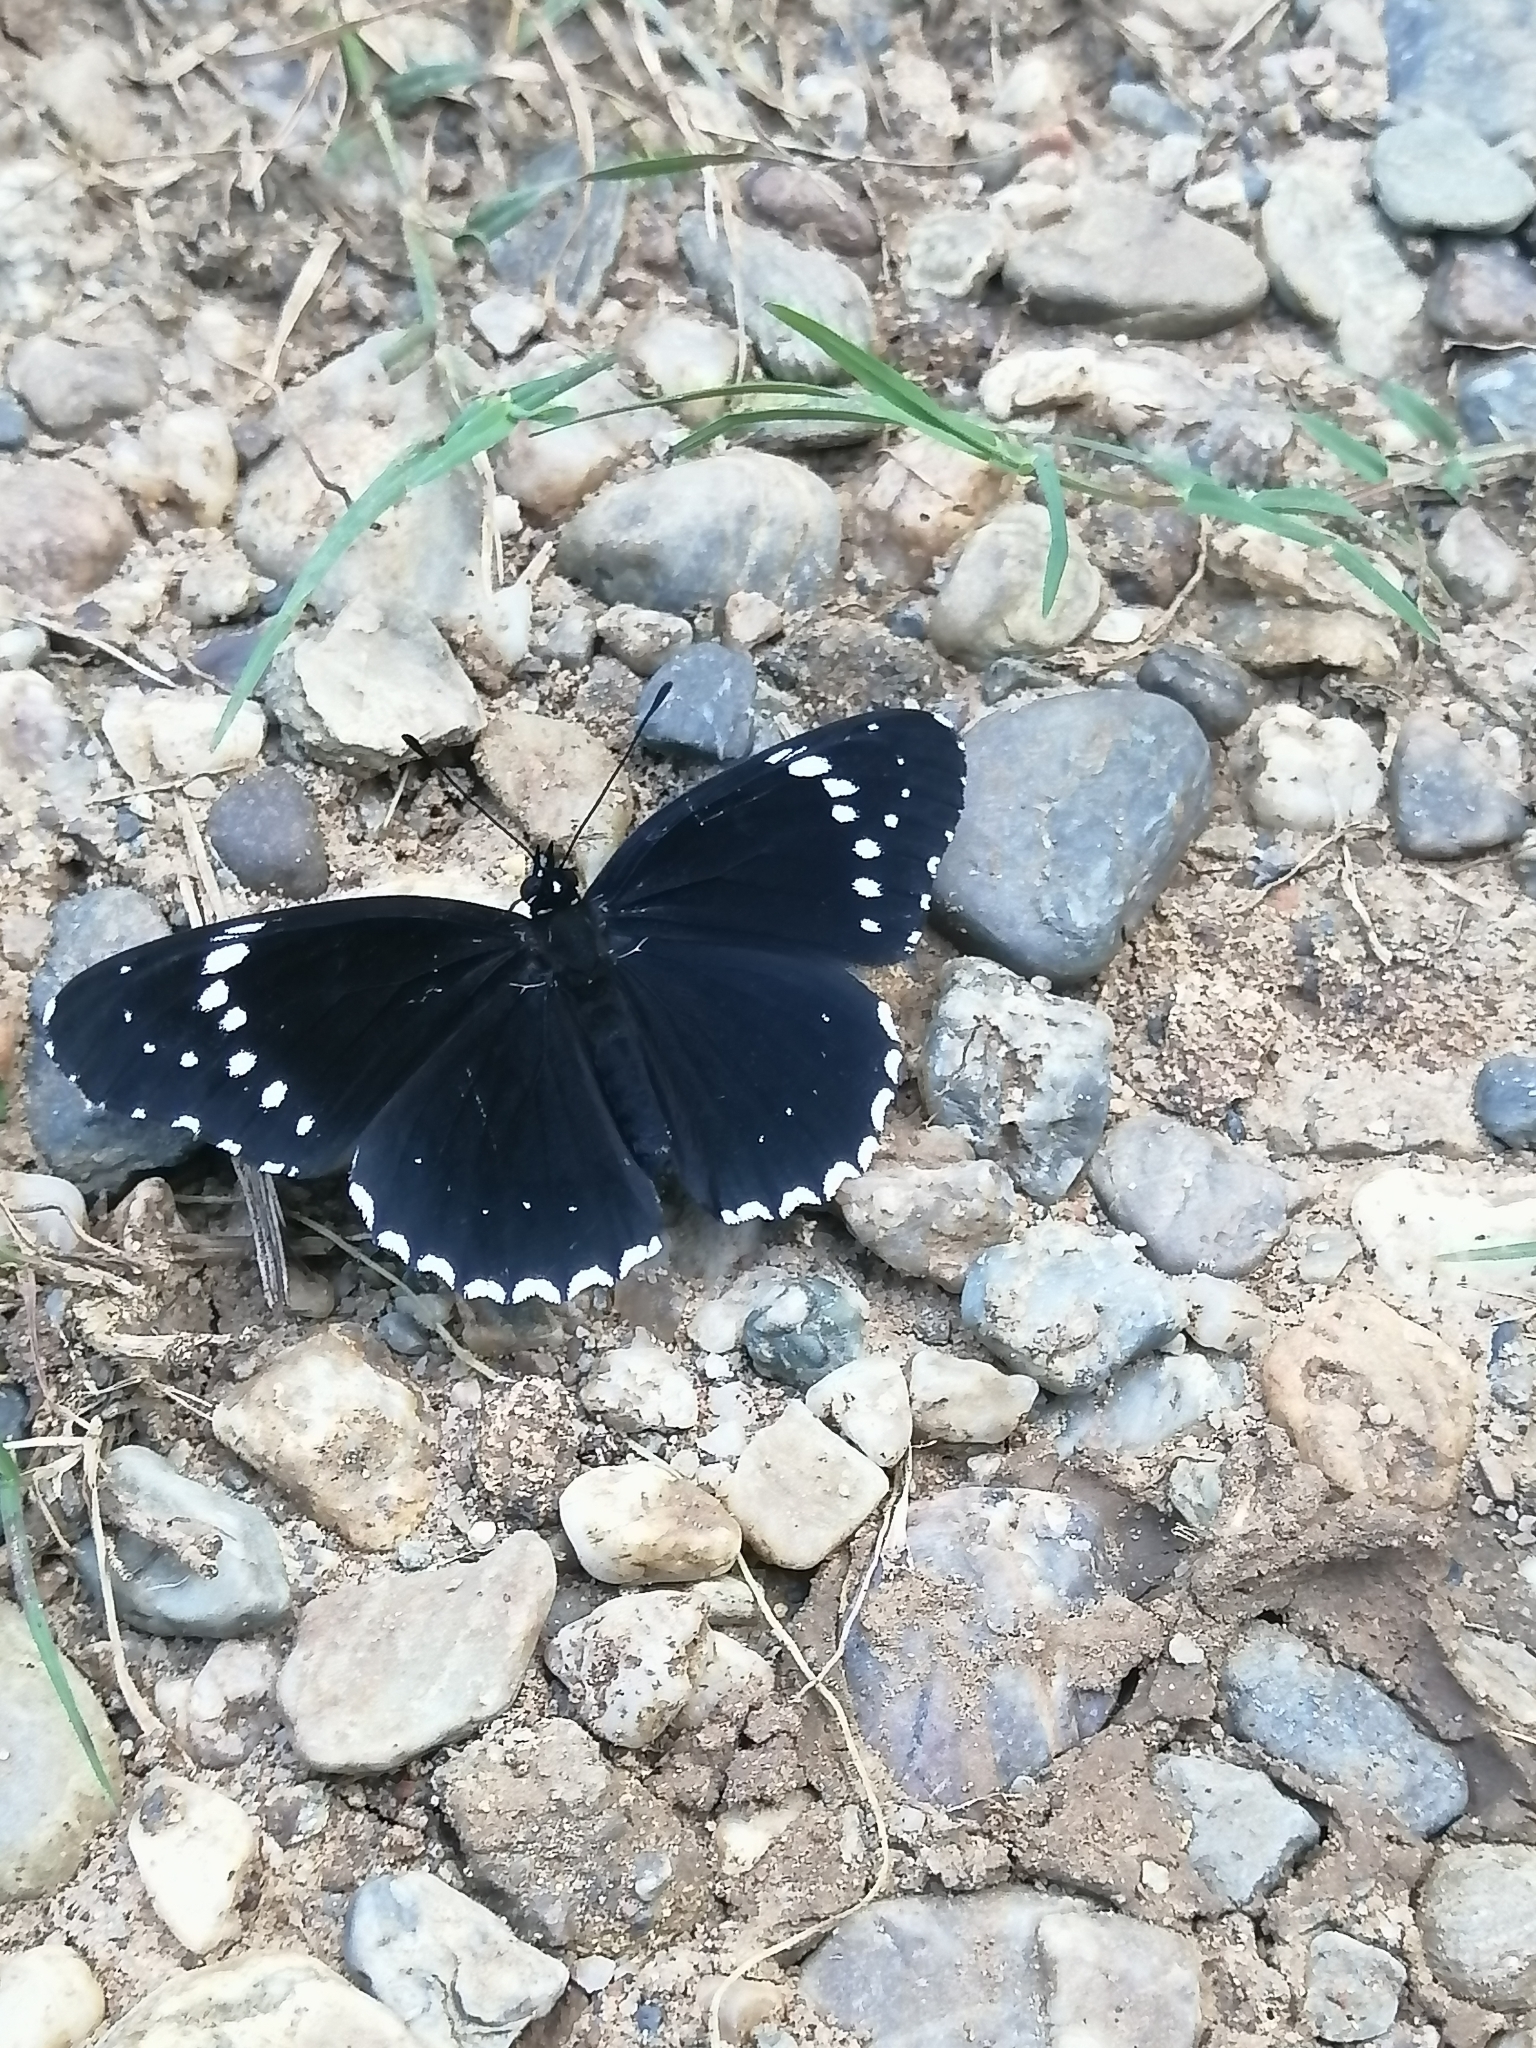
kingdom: Animalia
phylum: Arthropoda
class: Insecta
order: Lepidoptera
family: Nymphalidae
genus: Chlosyne
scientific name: Chlosyne hippodrome
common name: Simple patch
